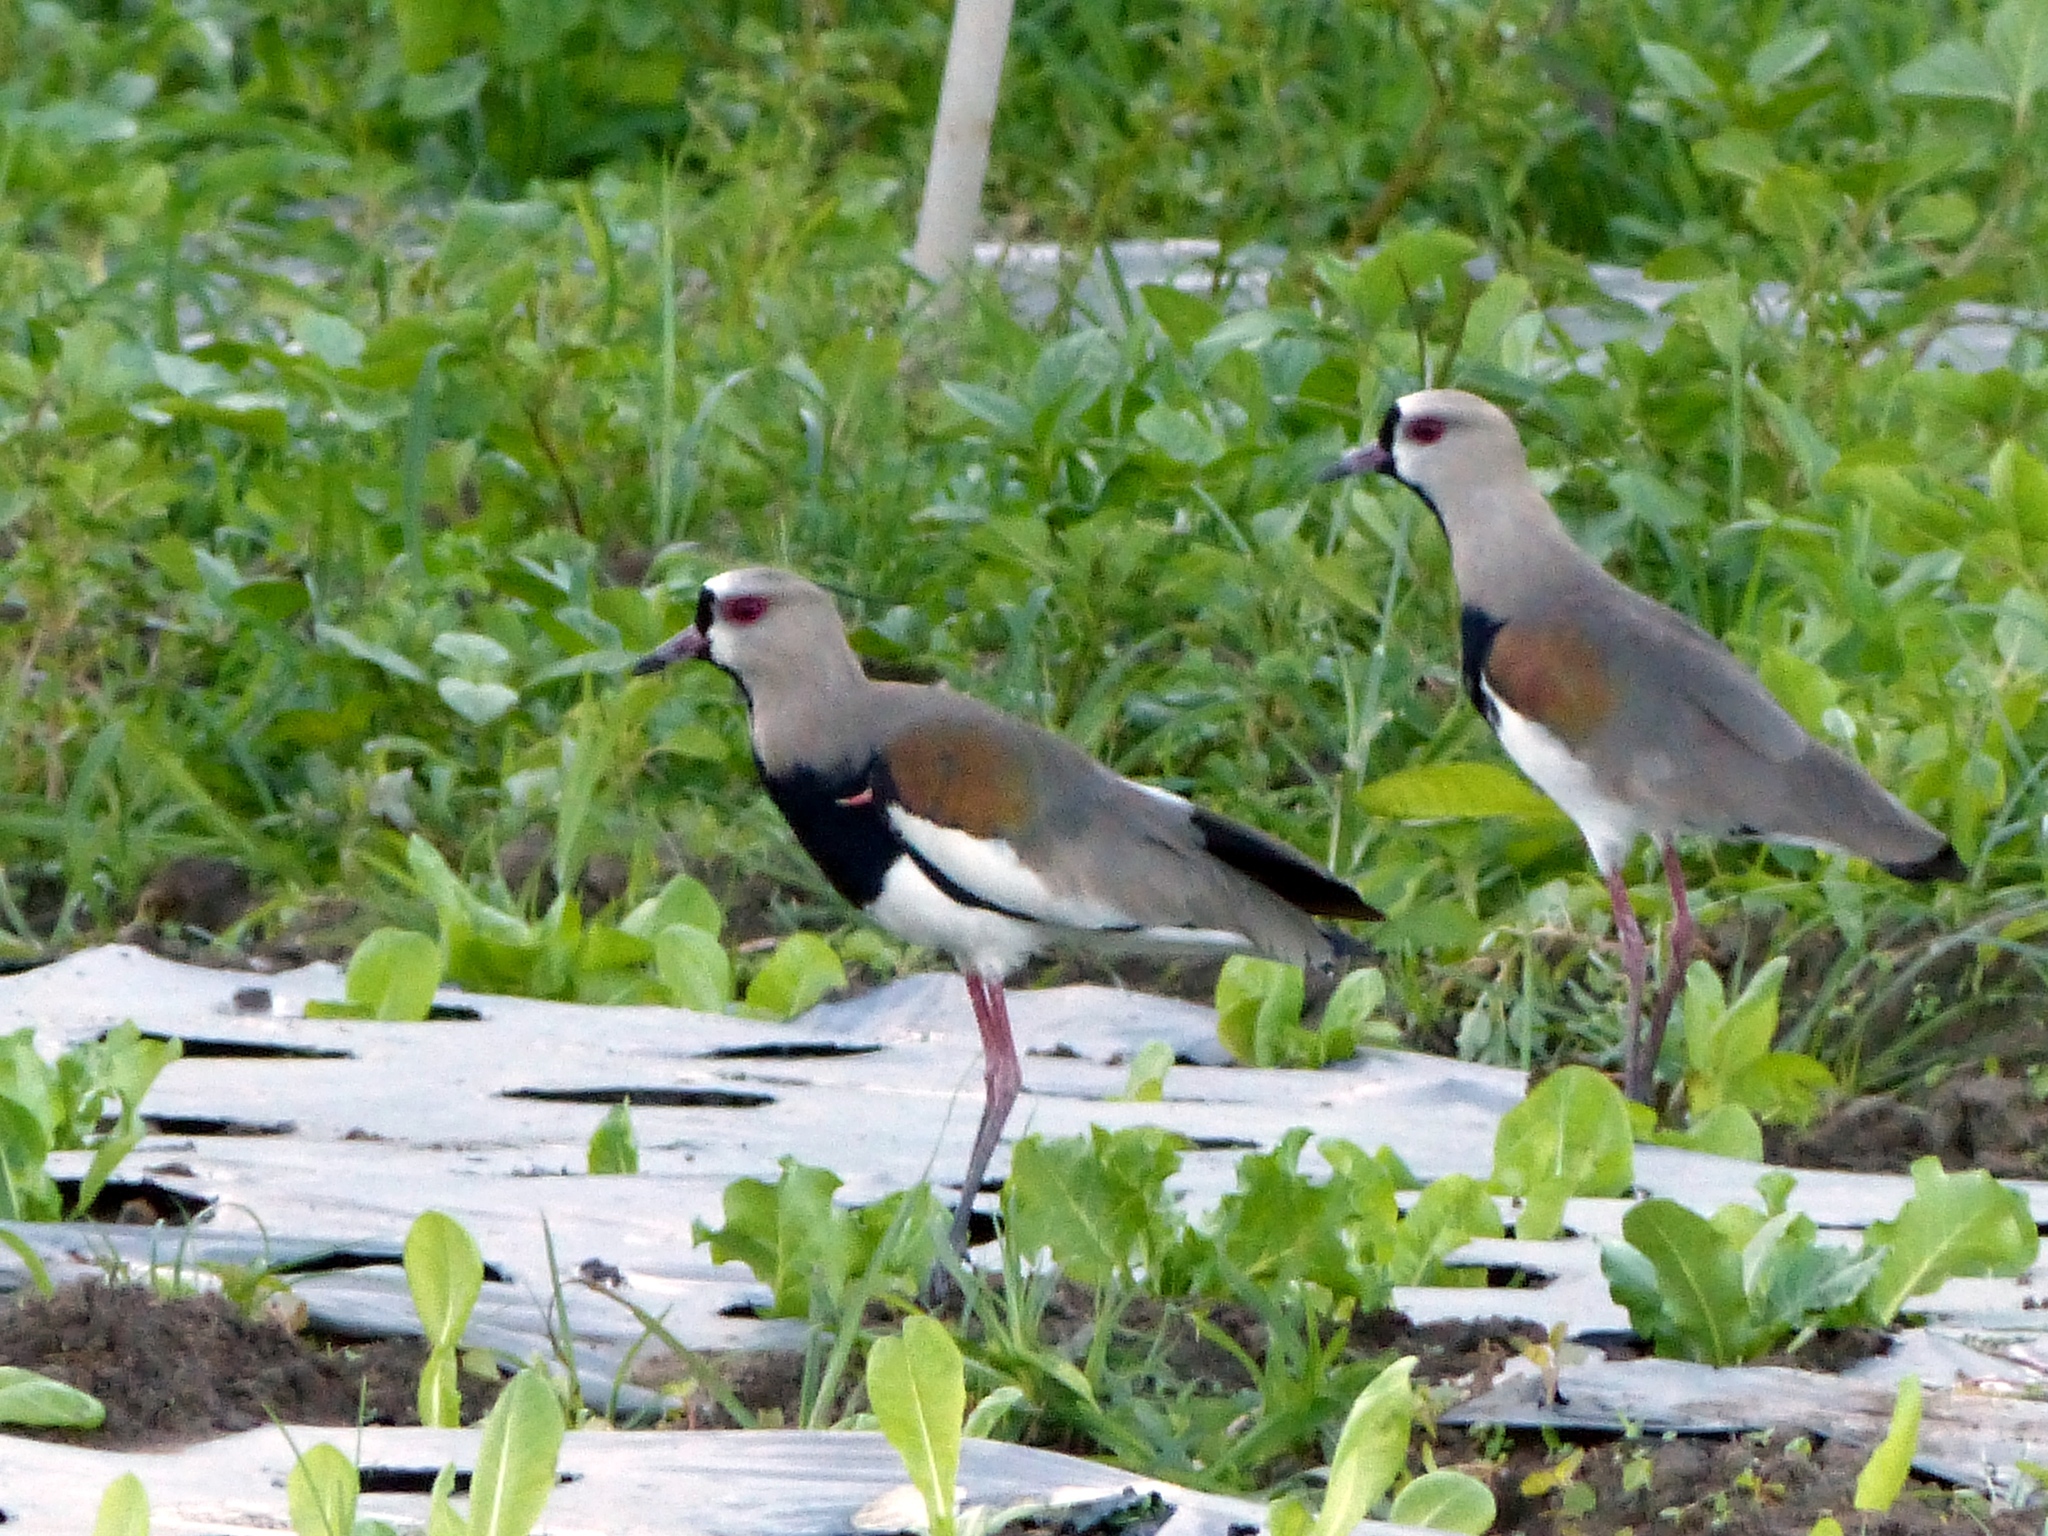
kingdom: Animalia
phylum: Chordata
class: Aves
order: Charadriiformes
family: Charadriidae
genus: Vanellus
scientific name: Vanellus chilensis
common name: Southern lapwing
